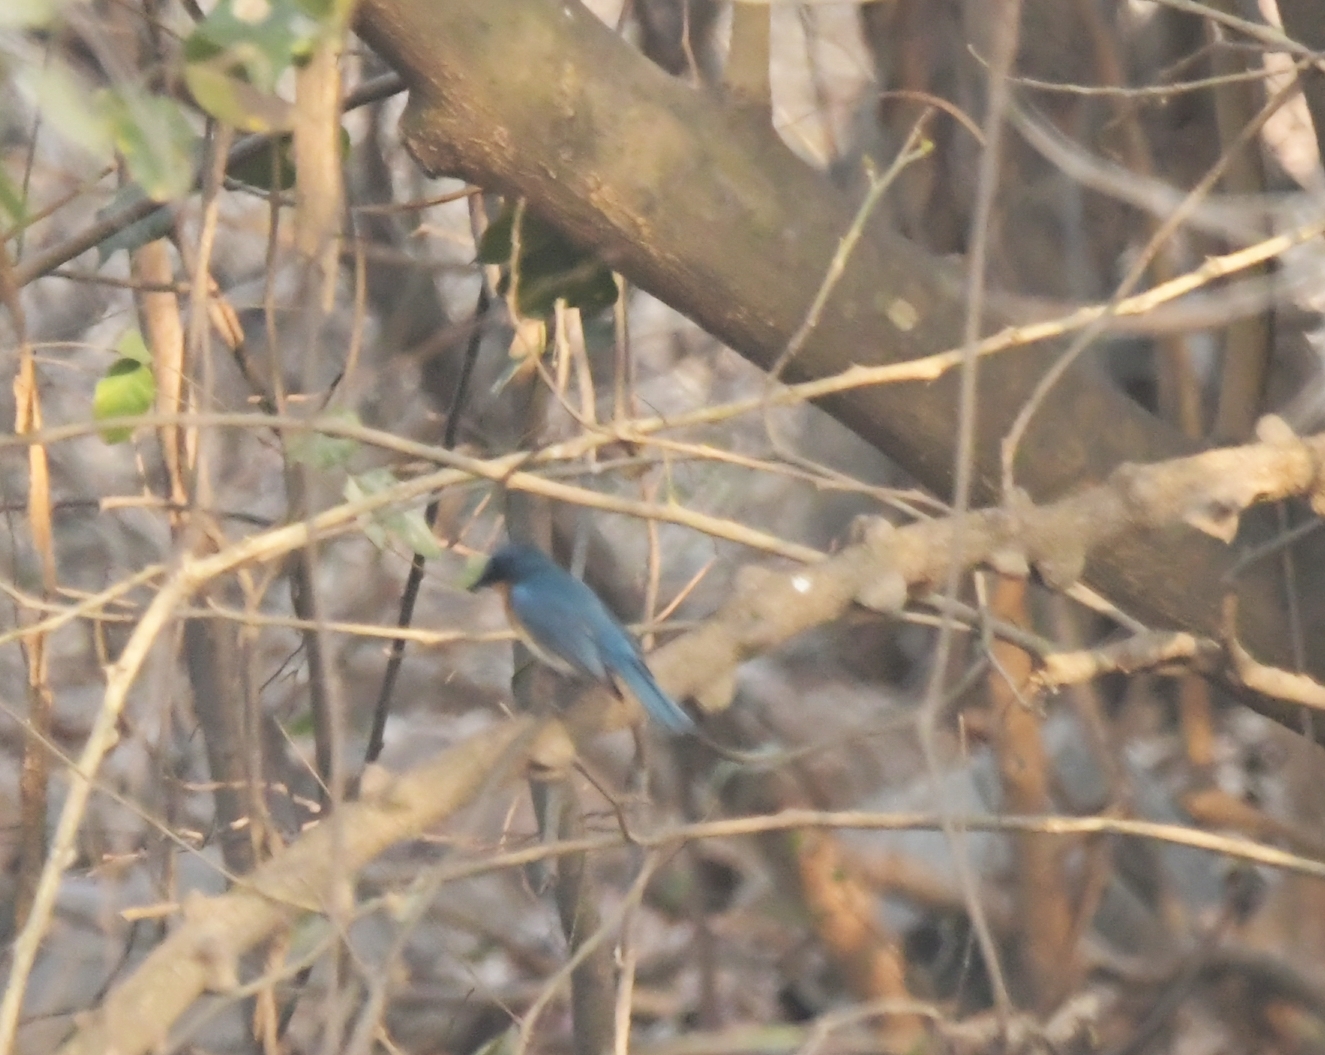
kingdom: Animalia
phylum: Chordata
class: Aves
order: Passeriformes
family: Muscicapidae
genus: Cyornis
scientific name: Cyornis tickelliae
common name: Tickell's blue flycatcher
